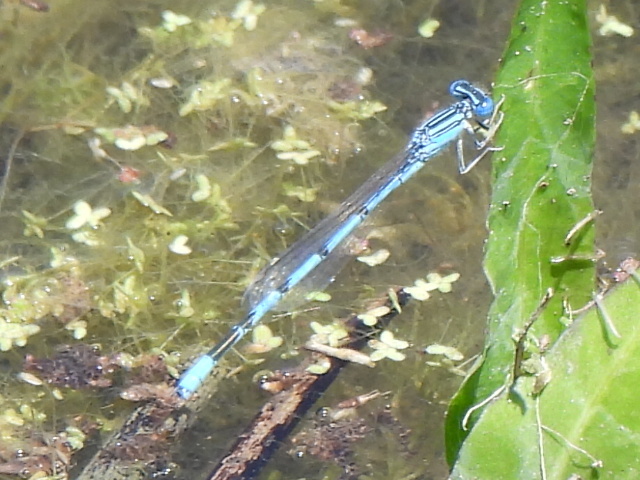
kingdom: Animalia
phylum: Arthropoda
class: Insecta
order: Odonata
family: Coenagrionidae
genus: Enallagma
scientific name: Enallagma basidens
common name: Double-striped bluet
